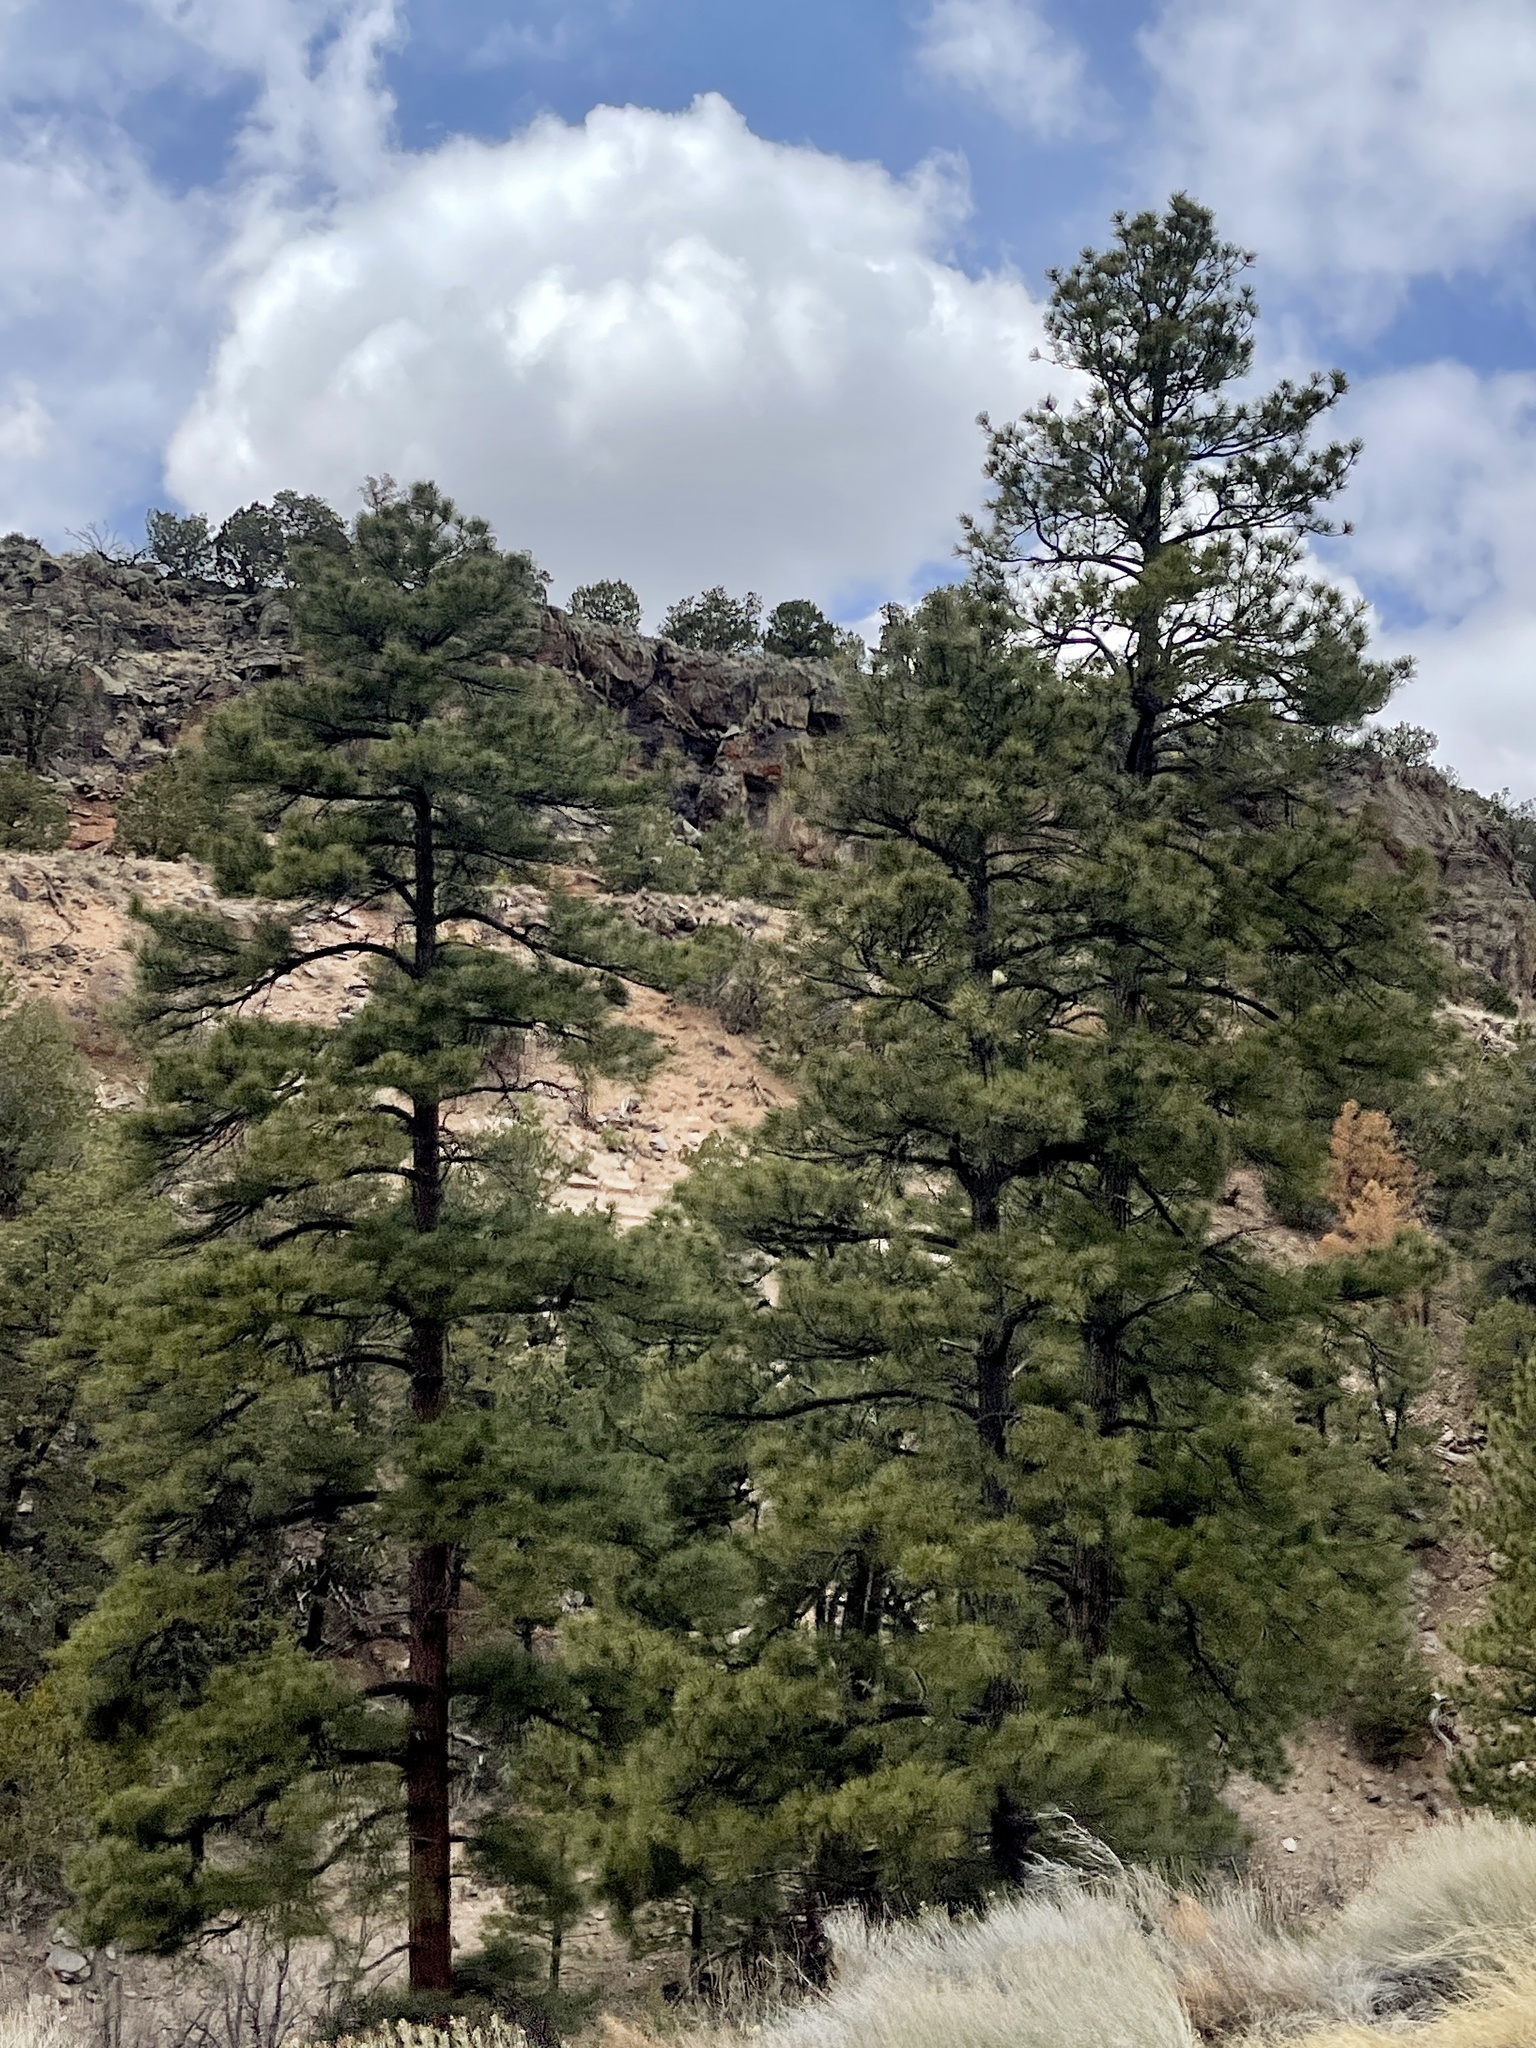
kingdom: Plantae
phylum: Tracheophyta
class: Pinopsida
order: Pinales
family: Pinaceae
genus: Pinus
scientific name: Pinus ponderosa
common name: Western yellow-pine
